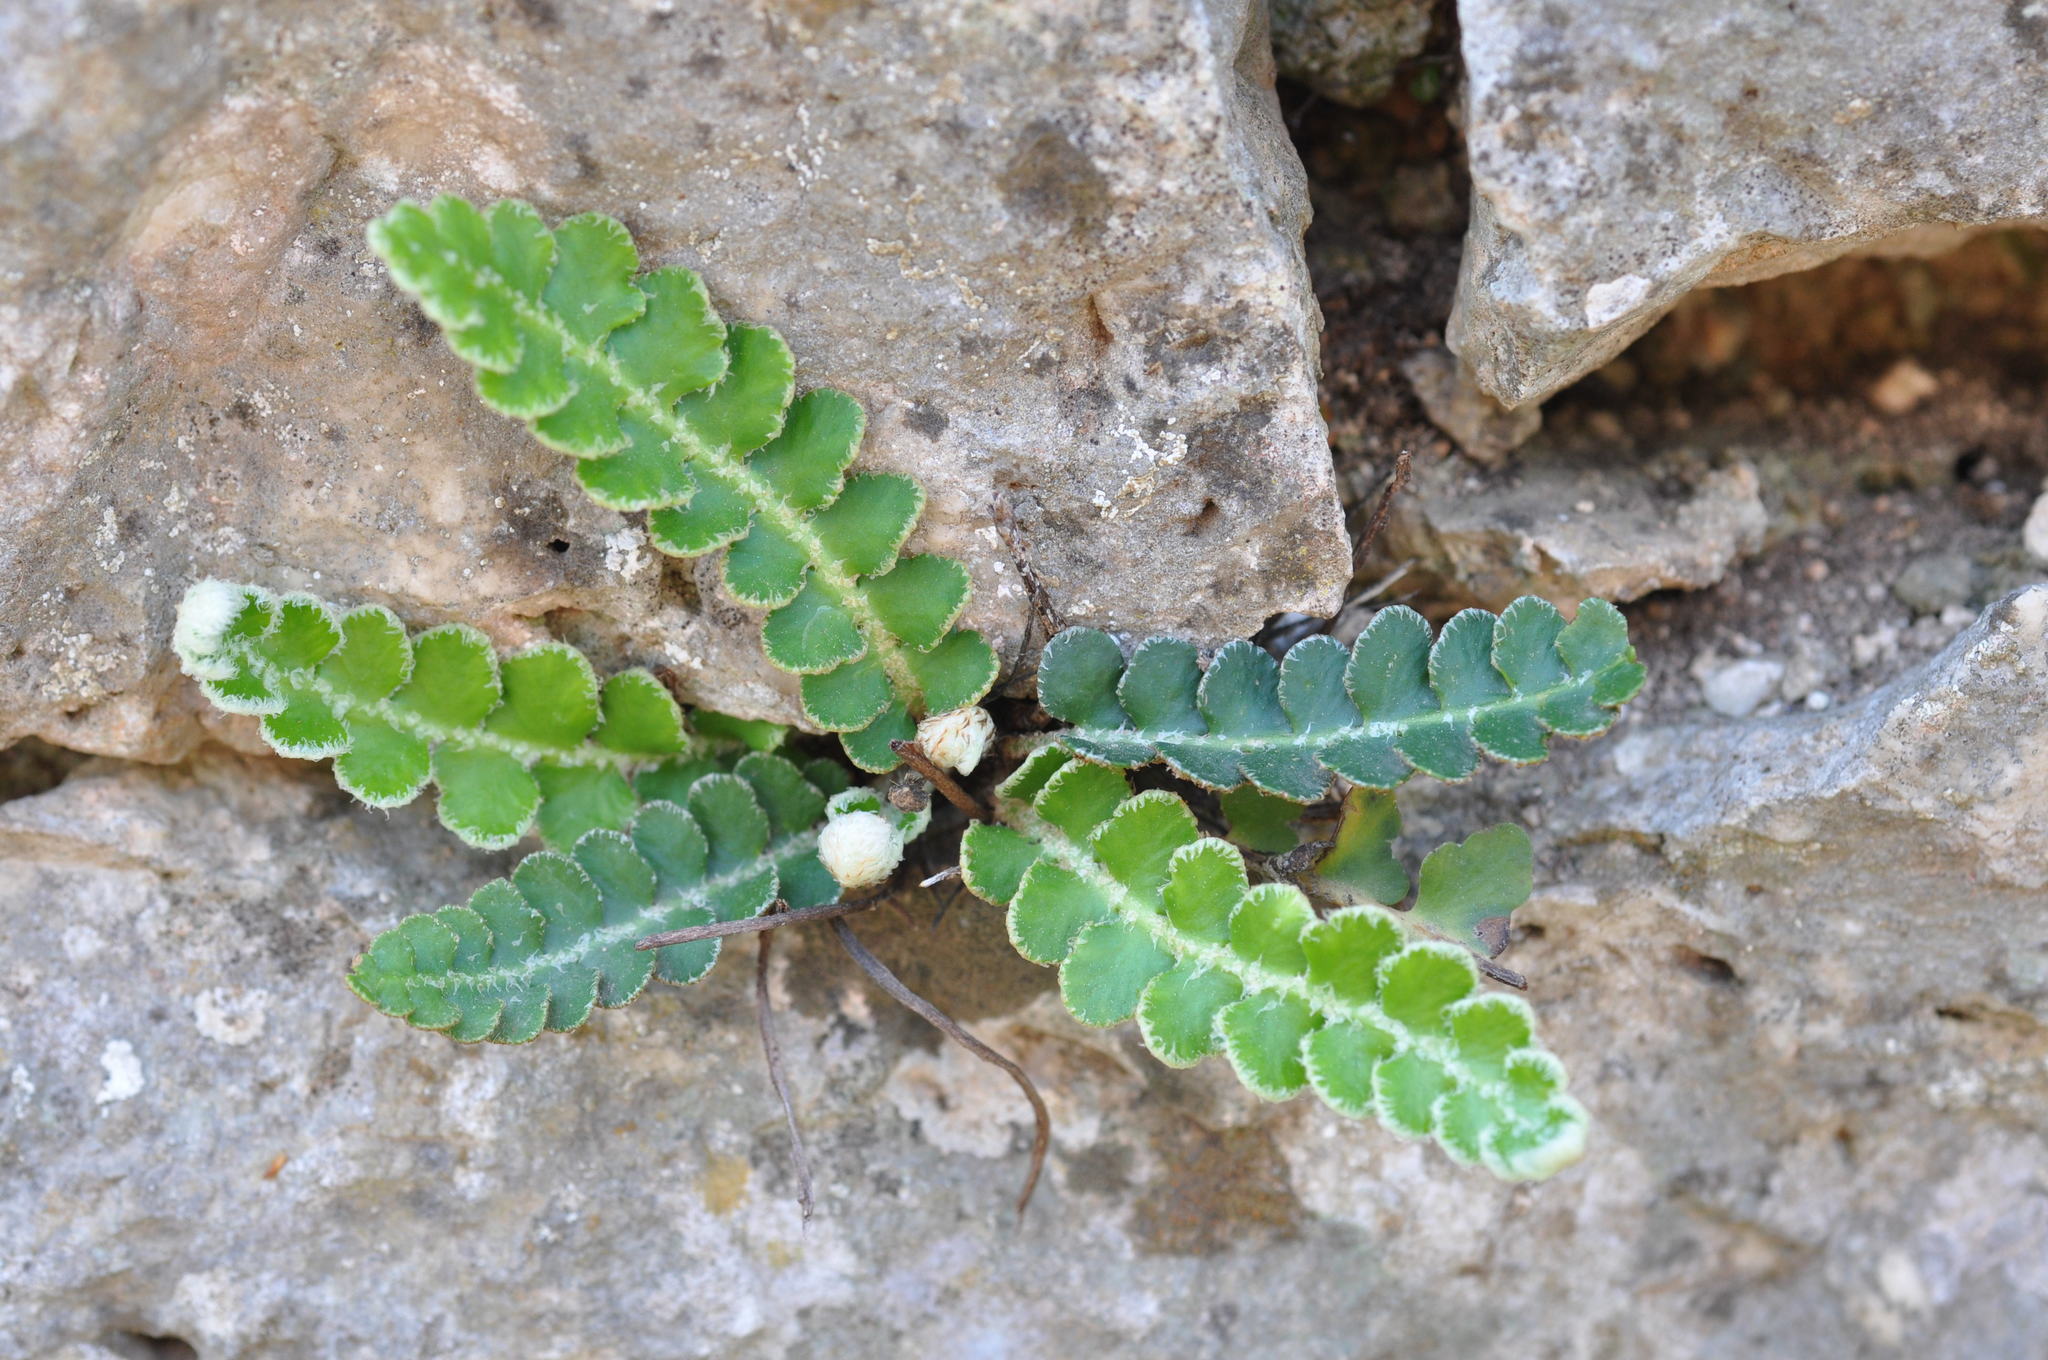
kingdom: Plantae
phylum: Tracheophyta
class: Polypodiopsida
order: Polypodiales
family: Aspleniaceae
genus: Asplenium
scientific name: Asplenium ceterach
